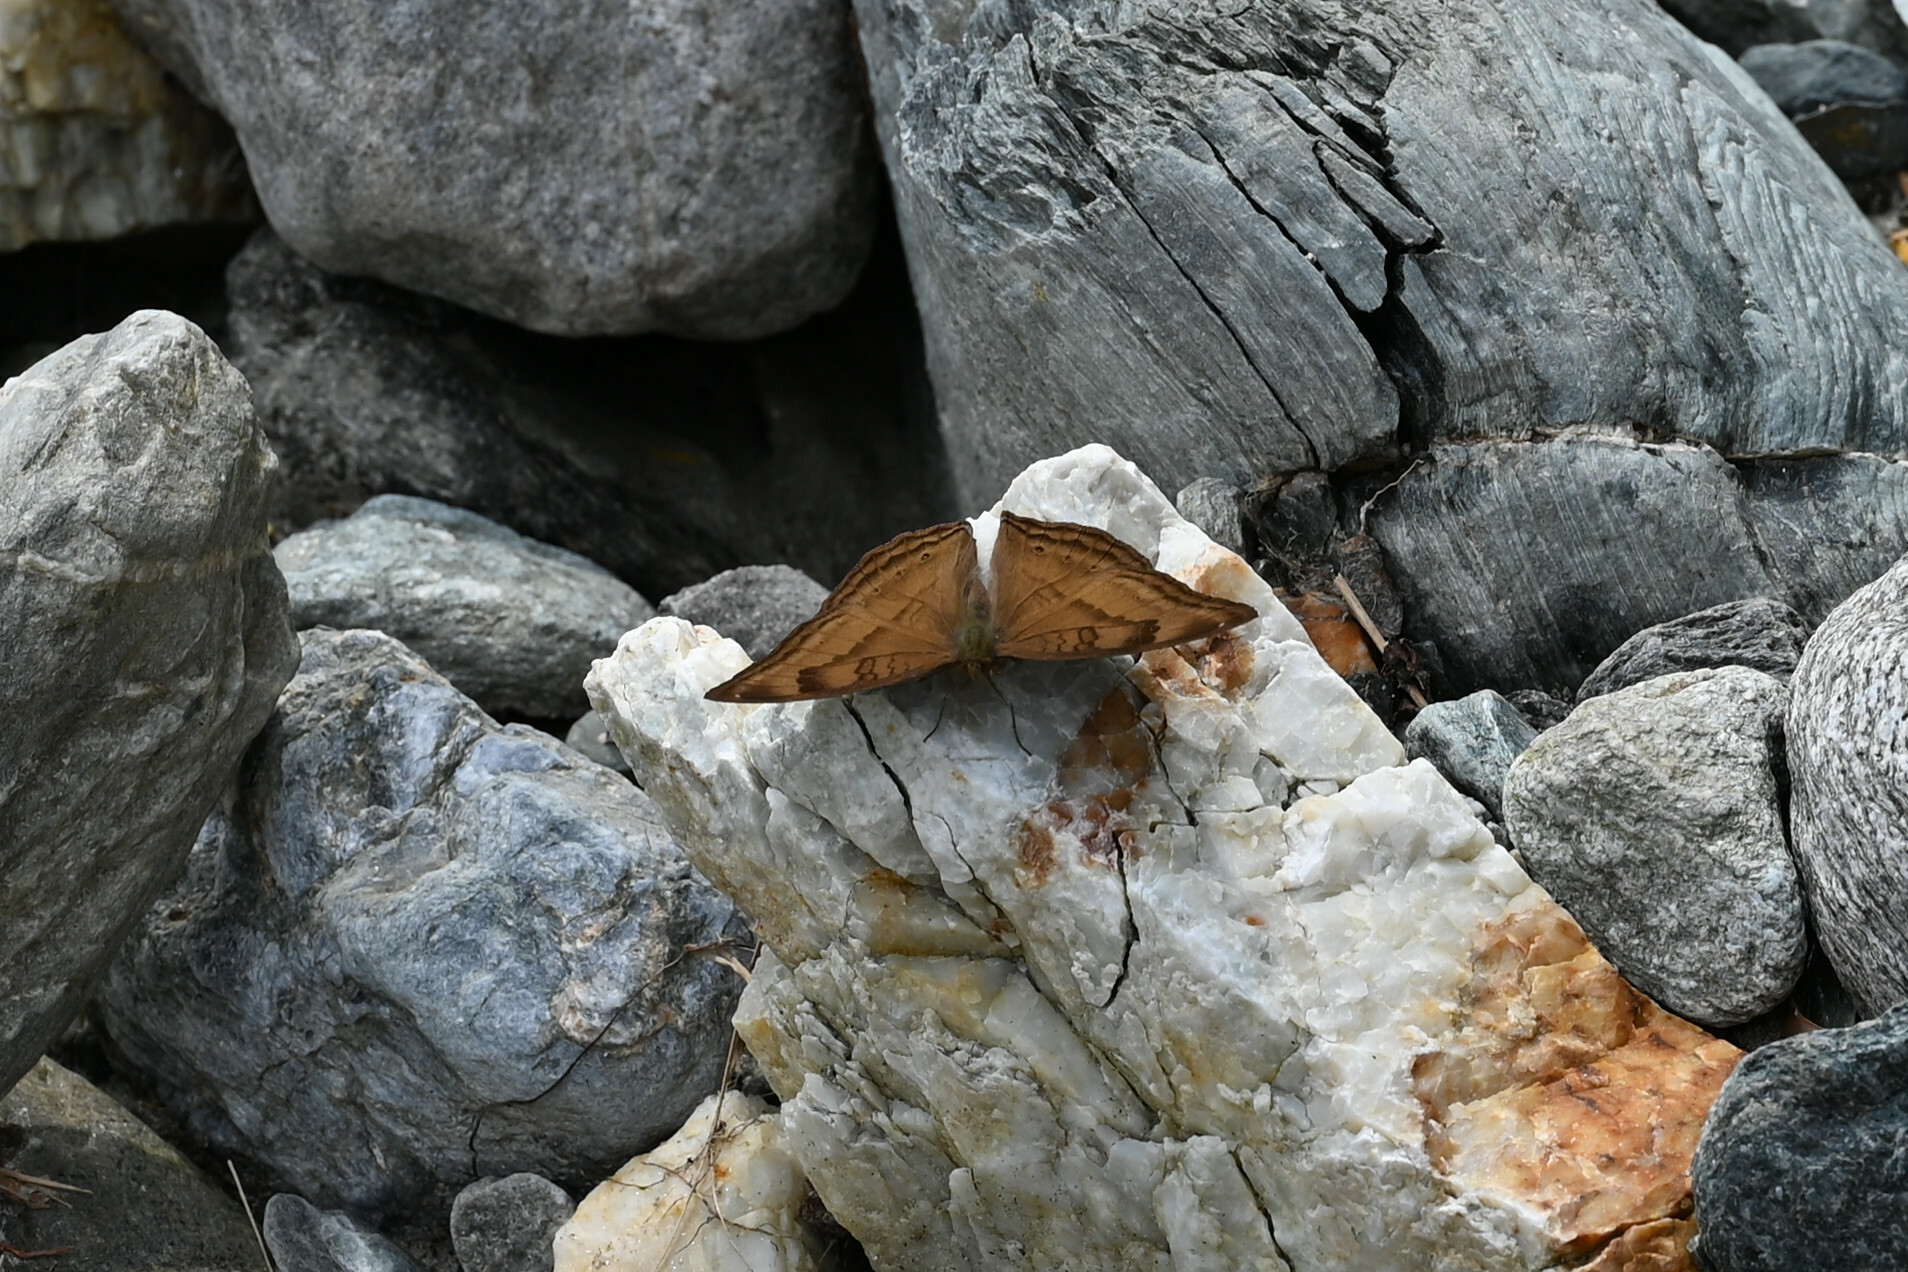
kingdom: Animalia
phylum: Arthropoda
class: Insecta
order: Lepidoptera
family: Nymphalidae
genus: Junonia
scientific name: Junonia iphita
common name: Chocolate pansy
